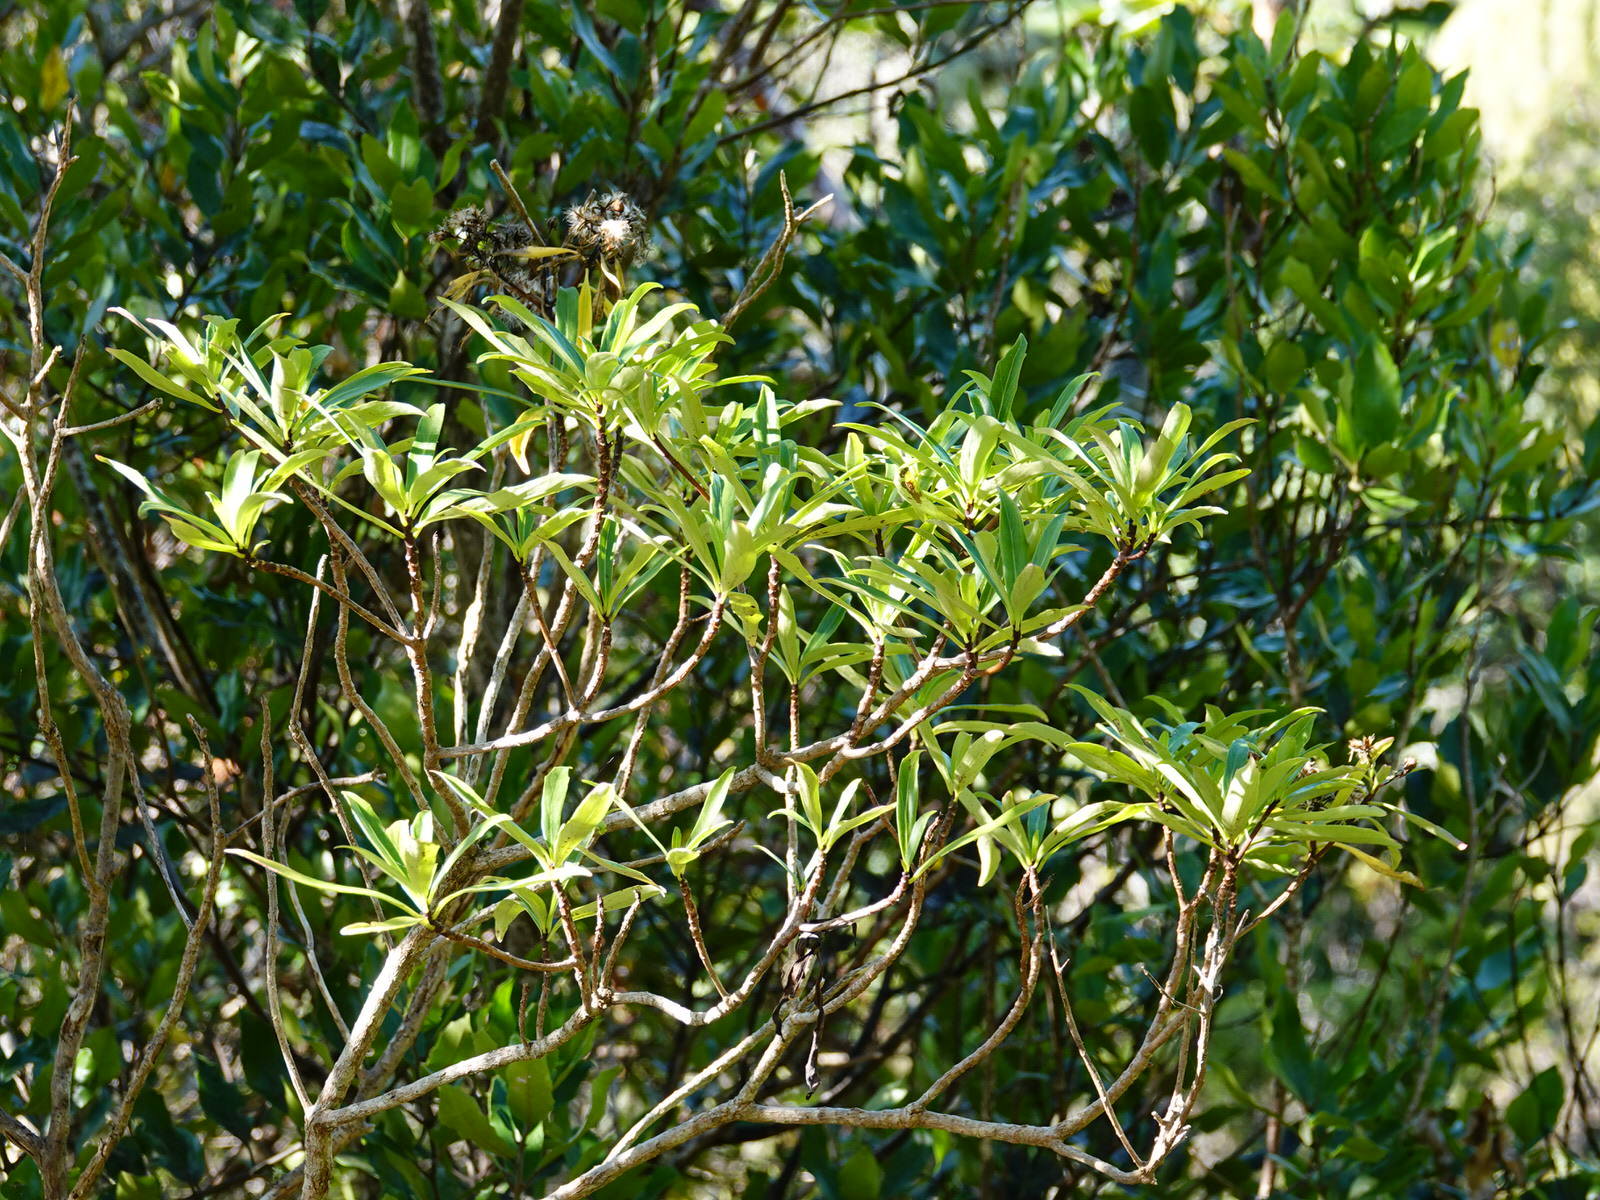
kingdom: Plantae
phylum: Tracheophyta
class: Magnoliopsida
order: Asterales
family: Asteraceae
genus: Brachyglottis
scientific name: Brachyglottis kirkii
